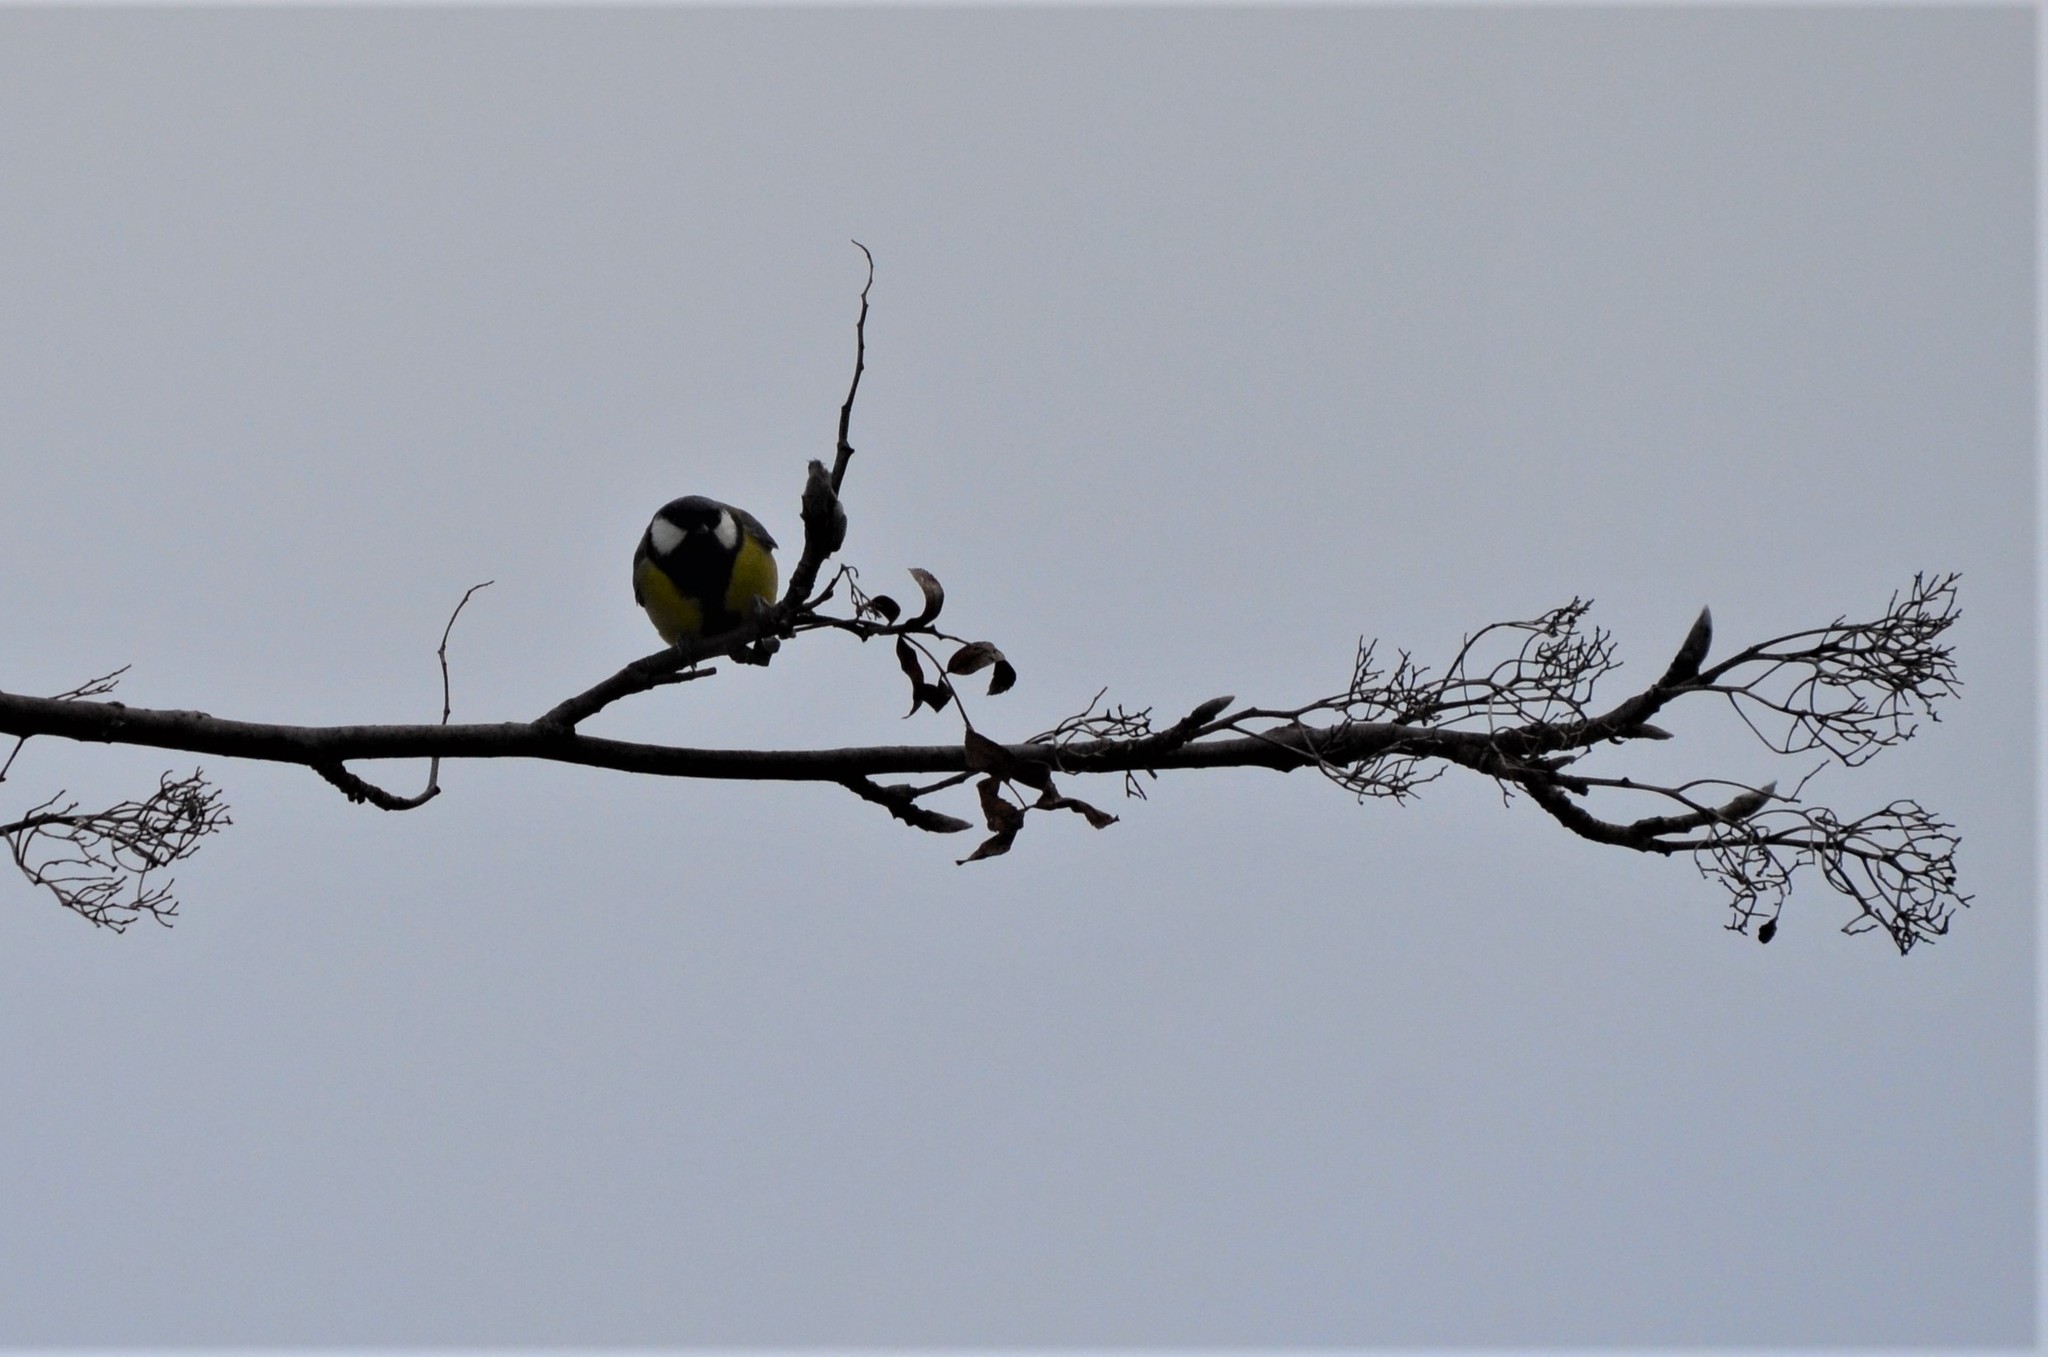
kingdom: Animalia
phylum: Chordata
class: Aves
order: Passeriformes
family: Paridae
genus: Parus
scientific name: Parus major
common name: Great tit
